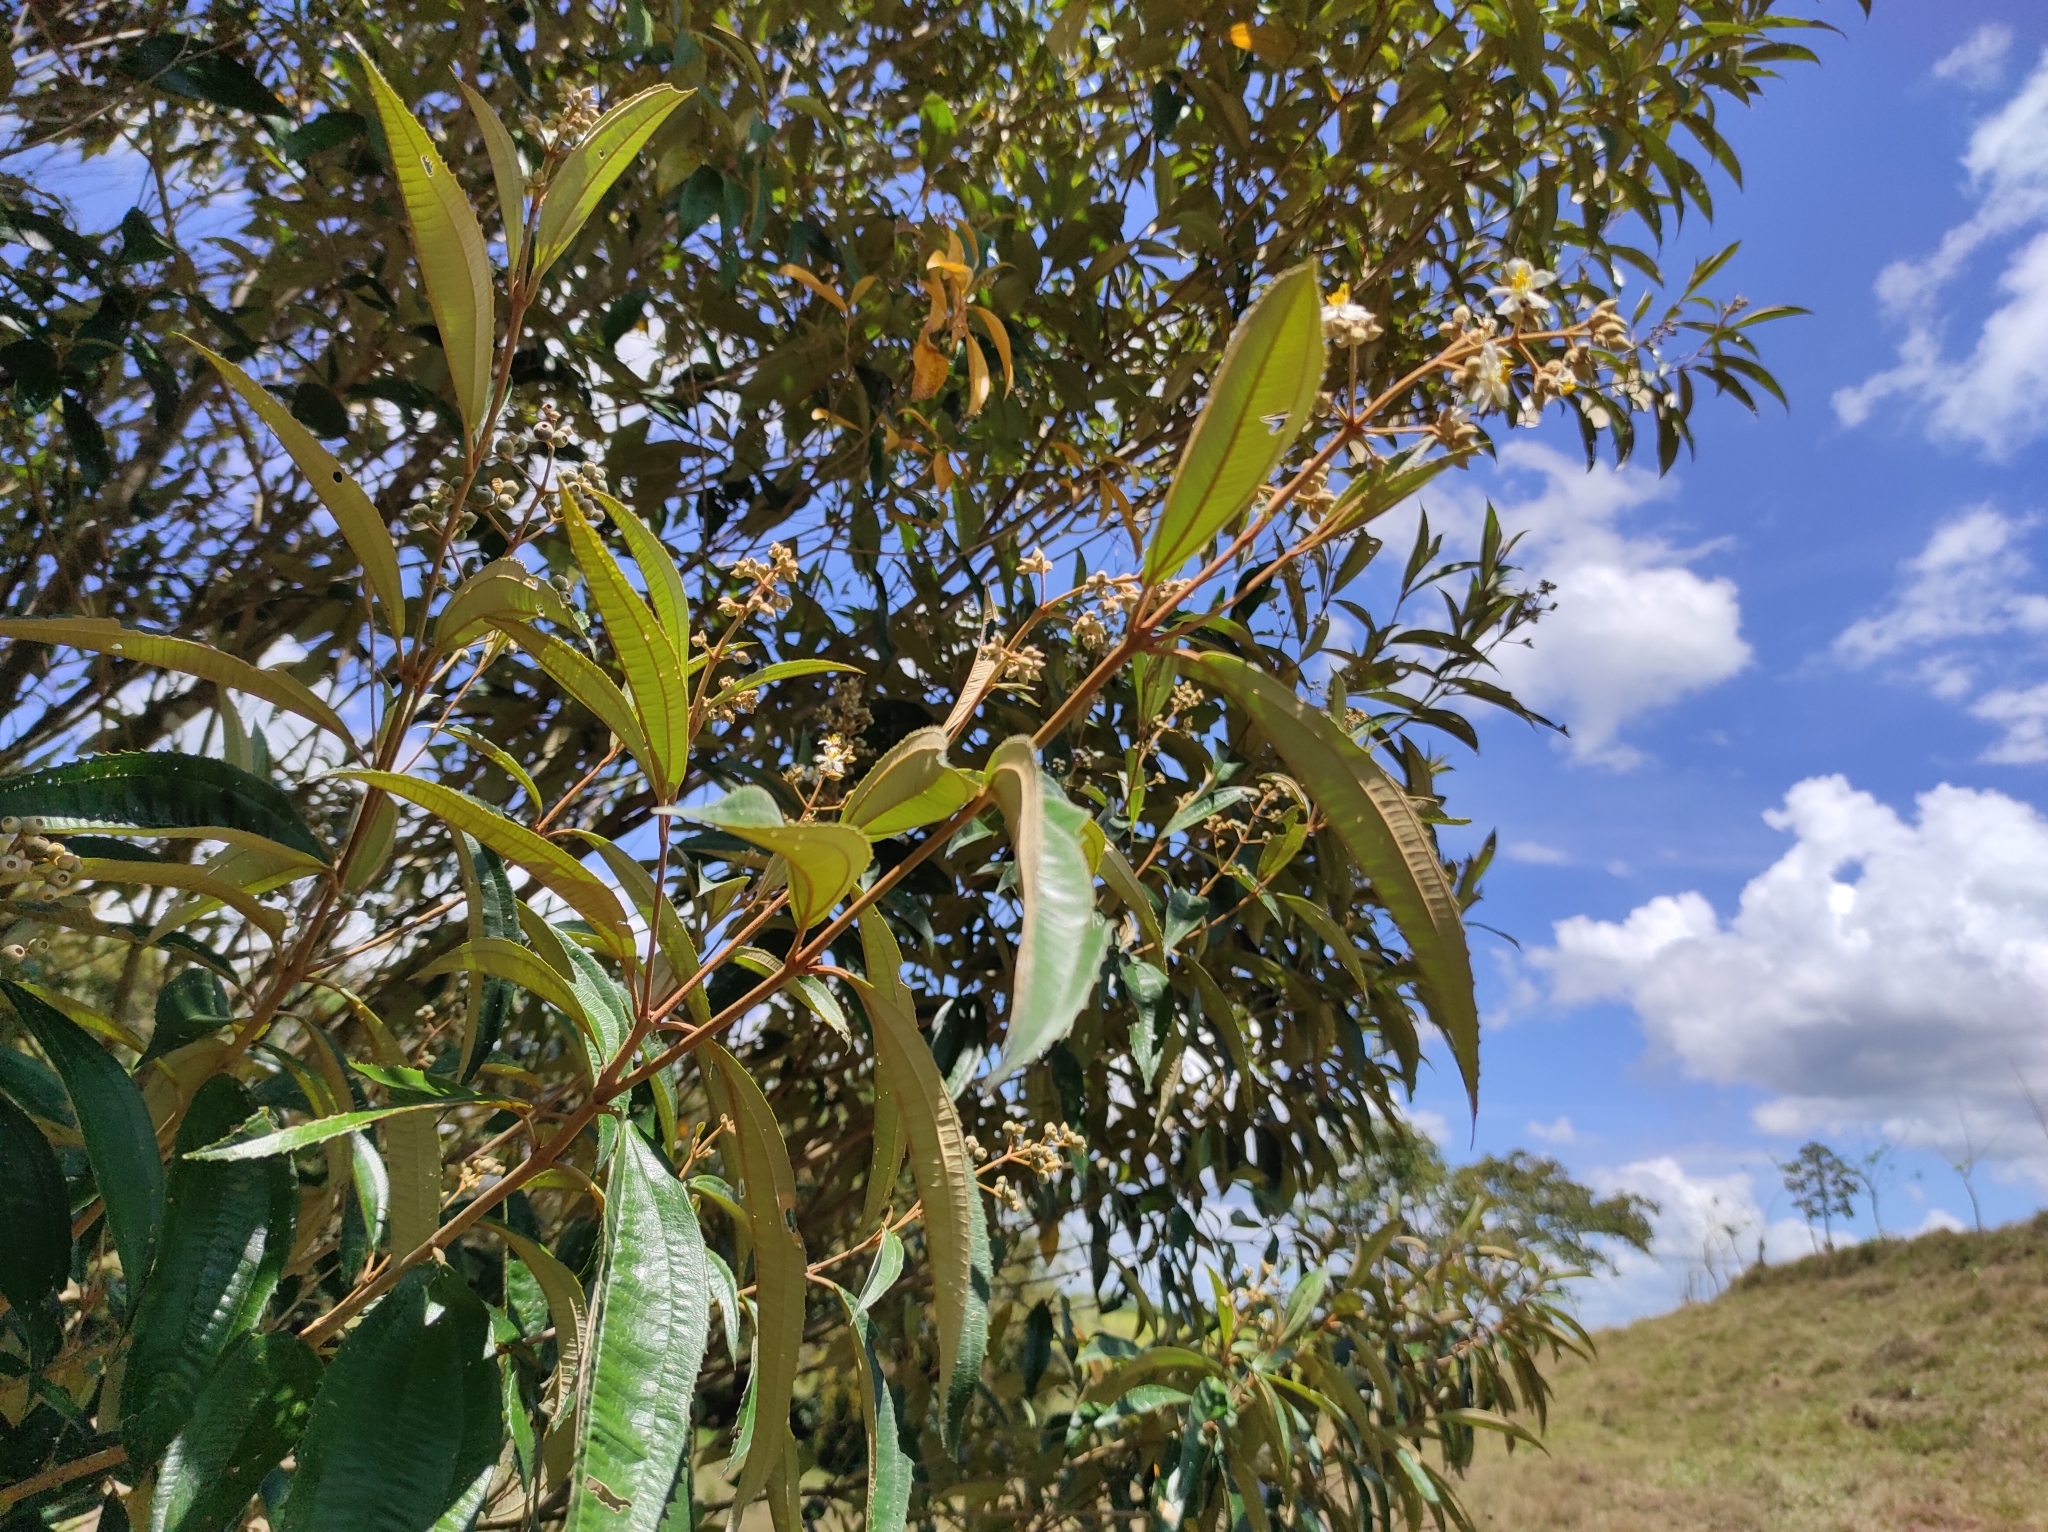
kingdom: Plantae
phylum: Tracheophyta
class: Magnoliopsida
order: Myrtales
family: Melastomataceae
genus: Miconia
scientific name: Miconia xalapensis
